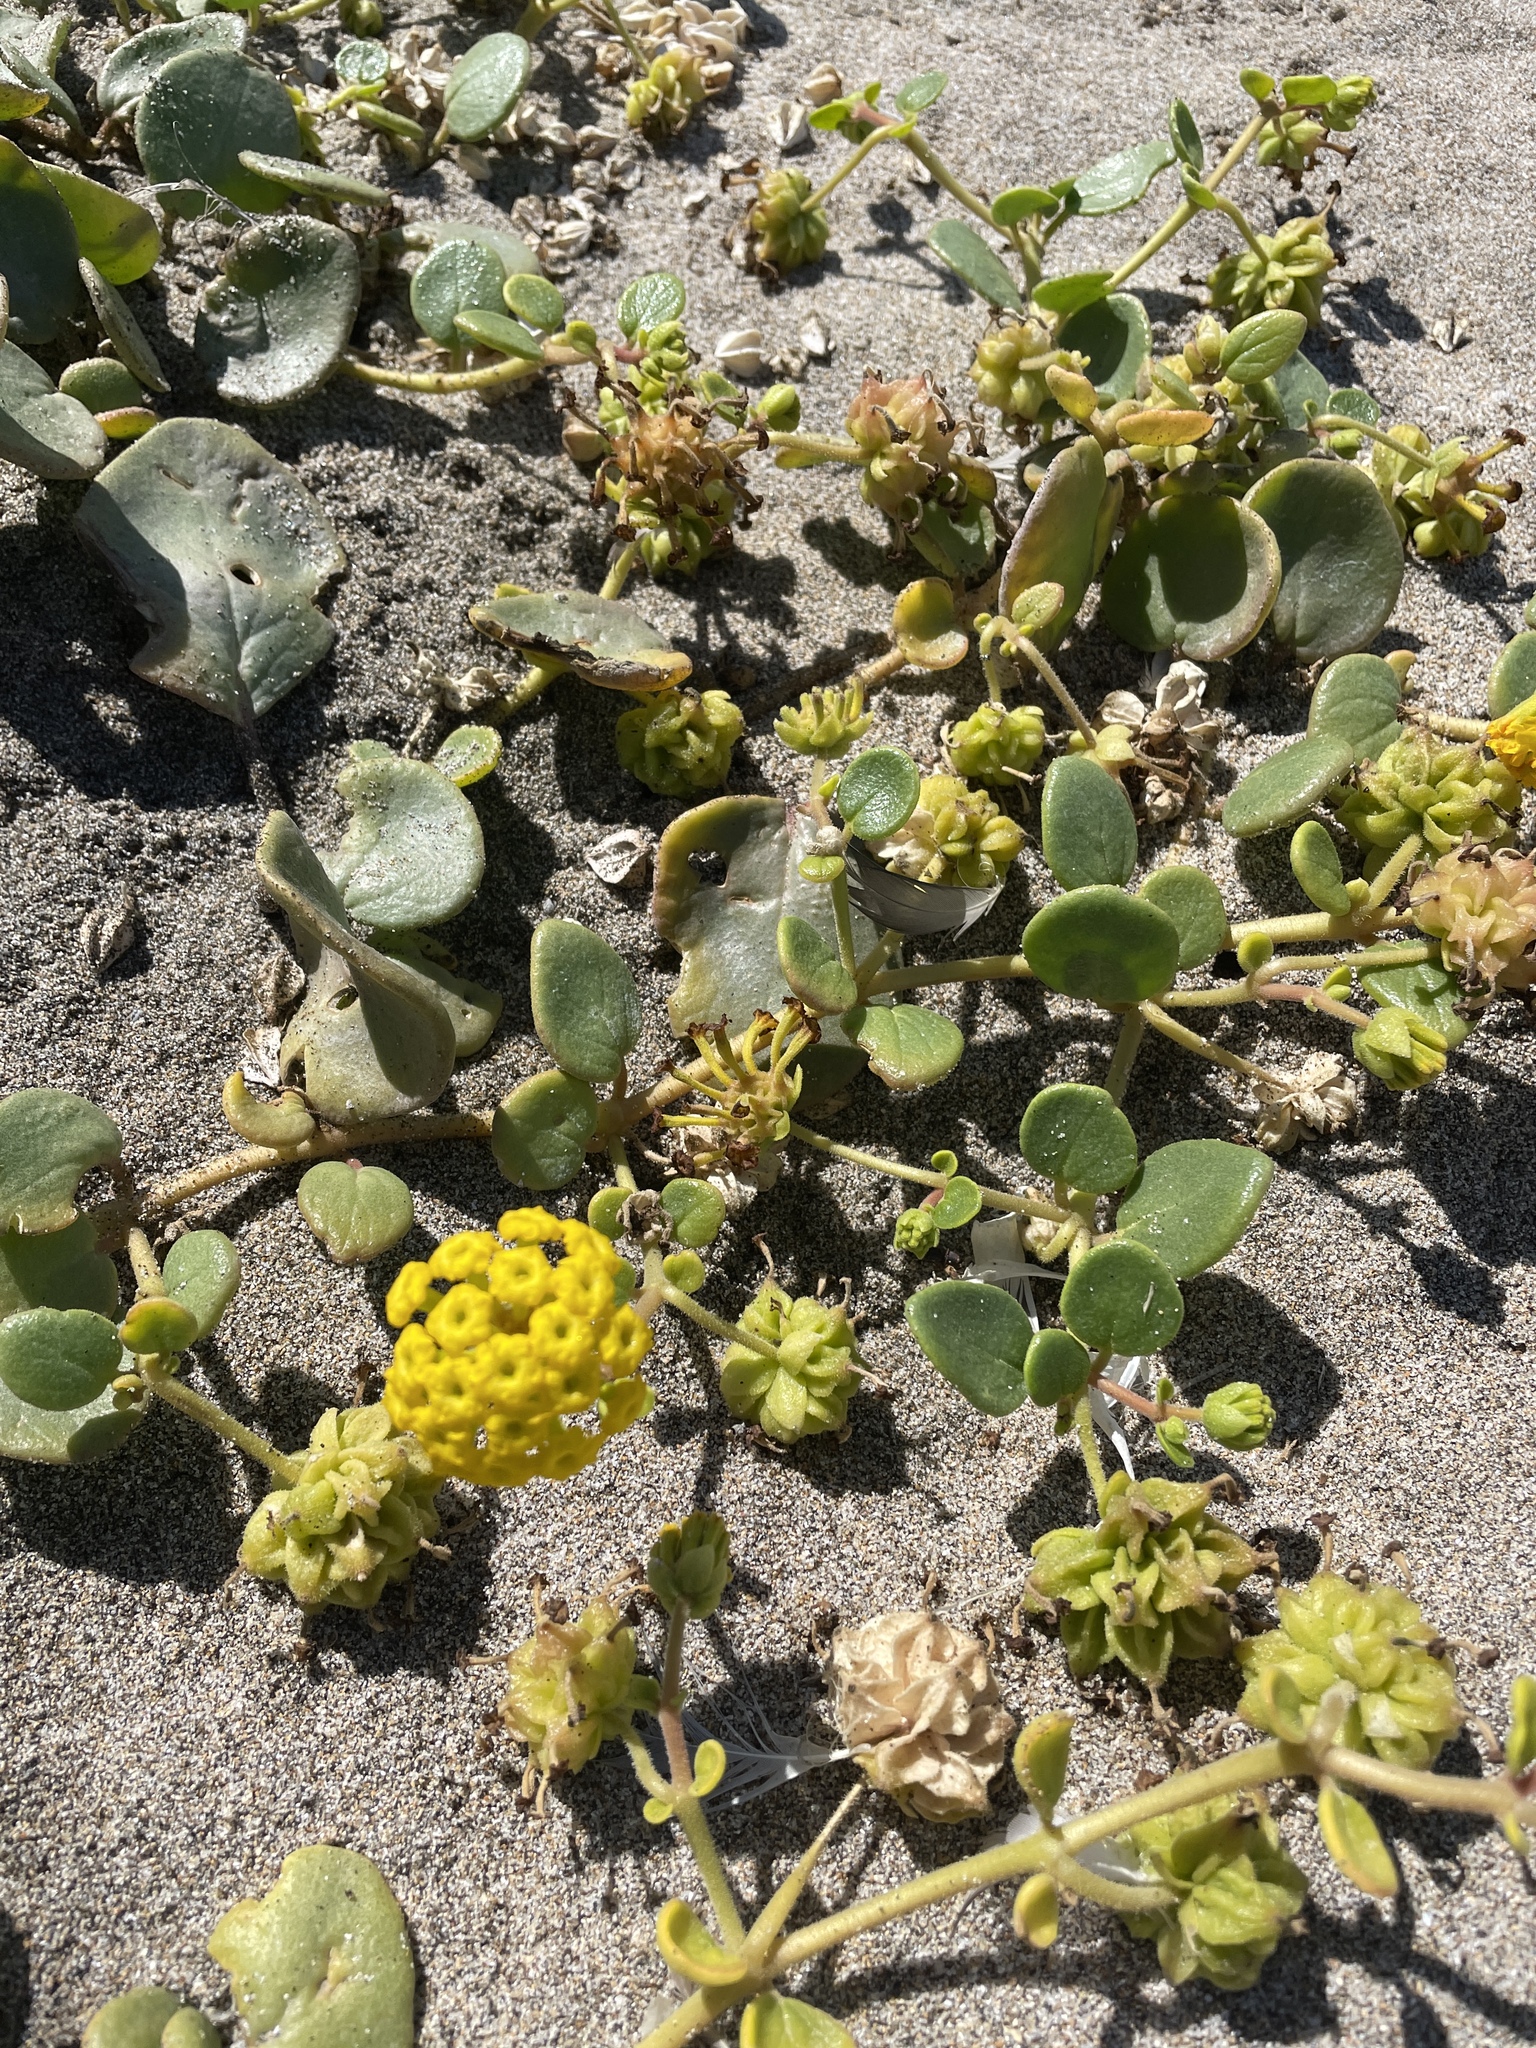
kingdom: Plantae
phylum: Tracheophyta
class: Magnoliopsida
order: Caryophyllales
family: Nyctaginaceae
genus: Abronia
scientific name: Abronia latifolia
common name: Yellow sand-verbena
